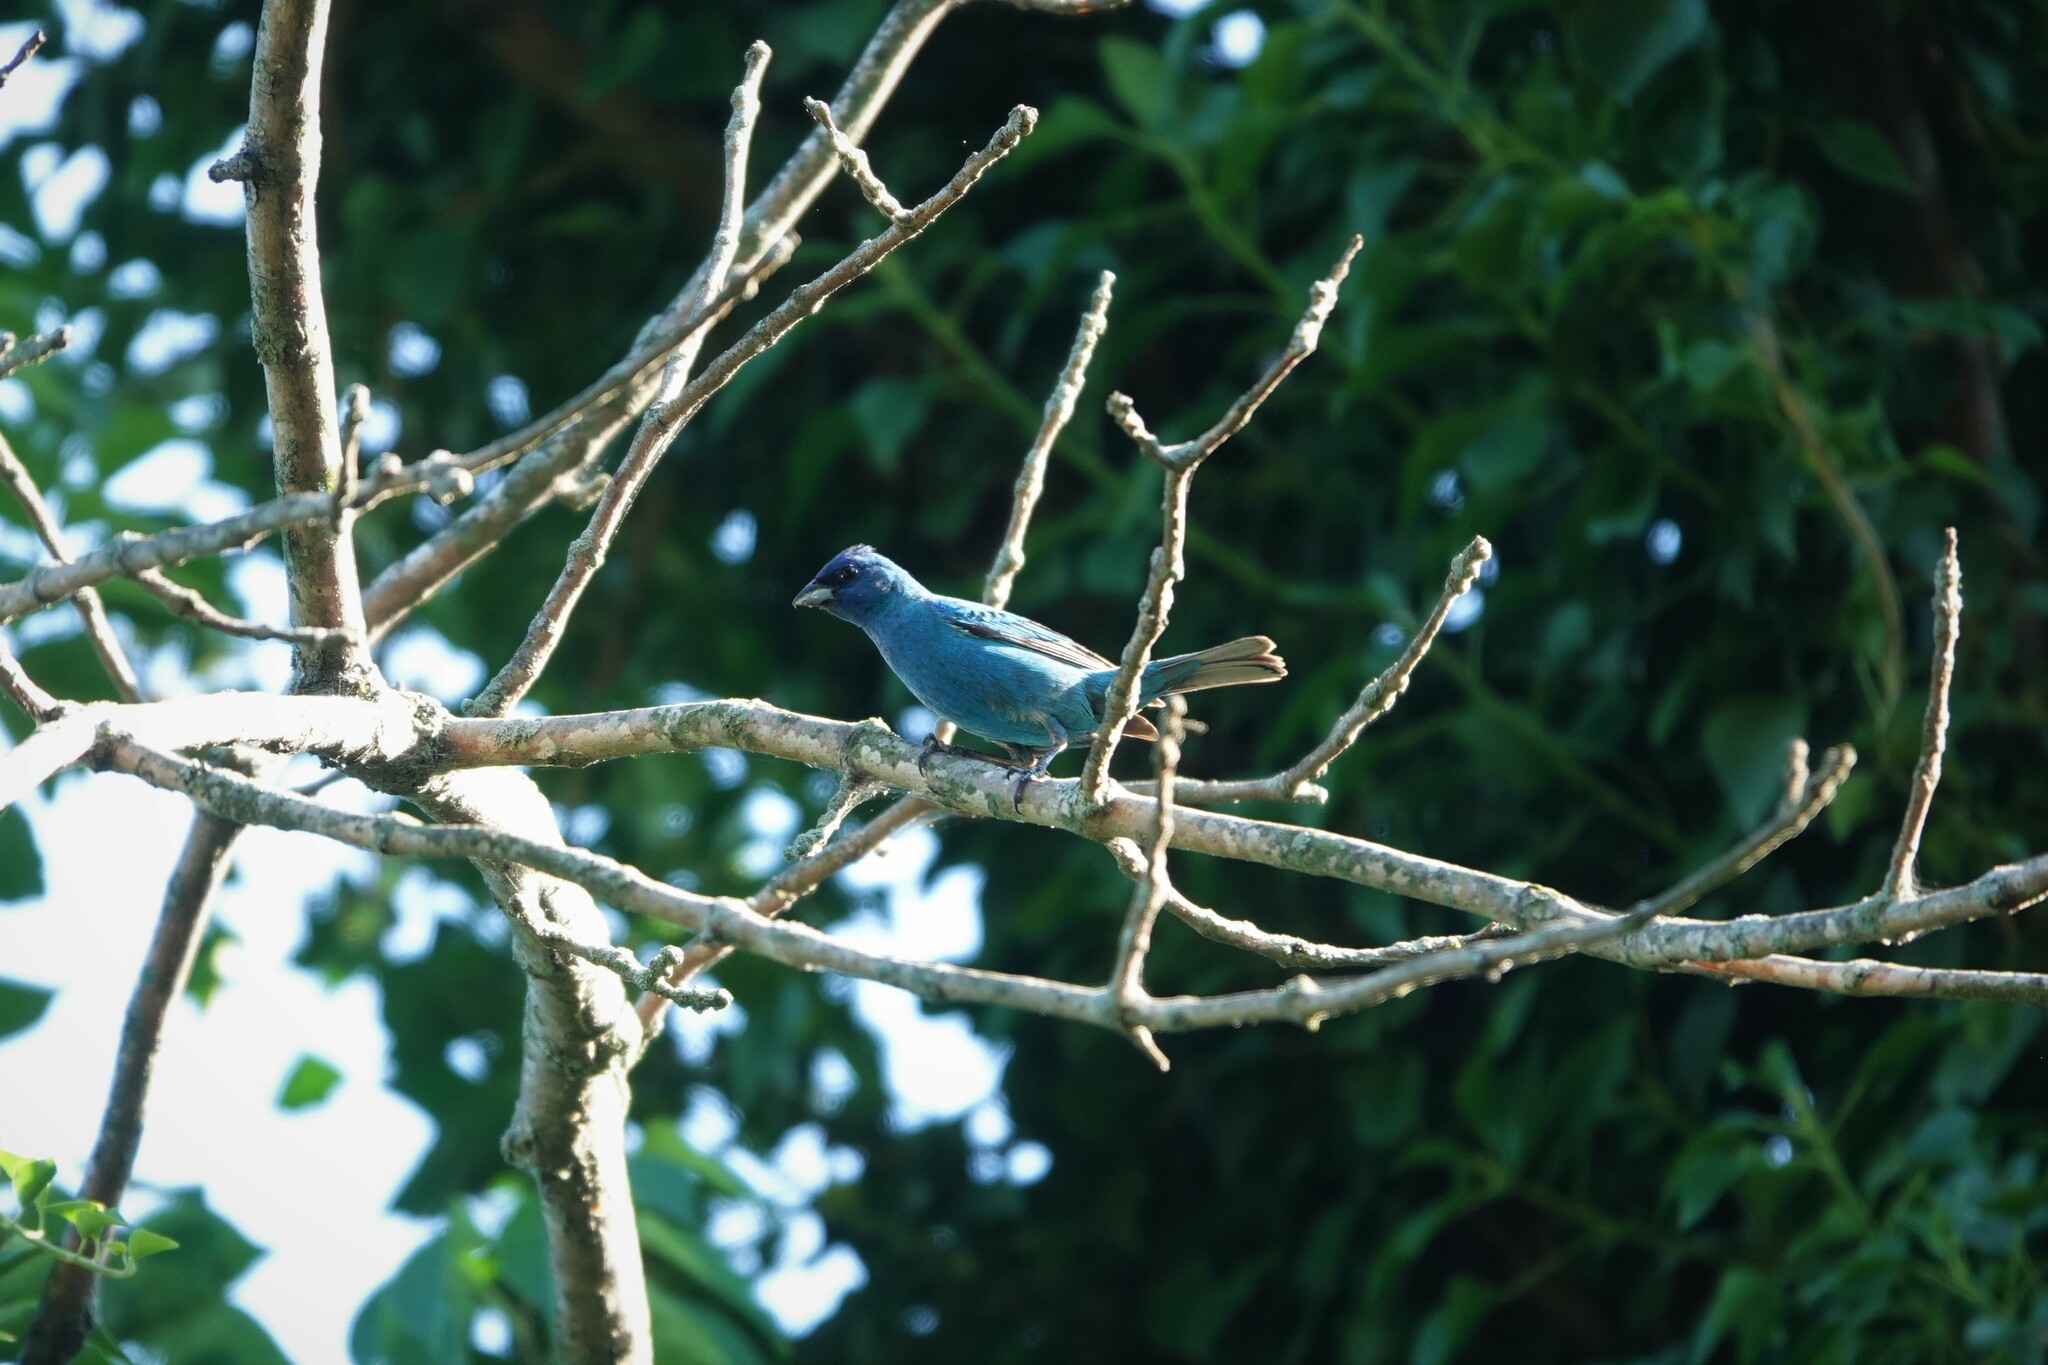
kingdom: Animalia
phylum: Chordata
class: Aves
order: Passeriformes
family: Cardinalidae
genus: Passerina
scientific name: Passerina cyanea
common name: Indigo bunting
